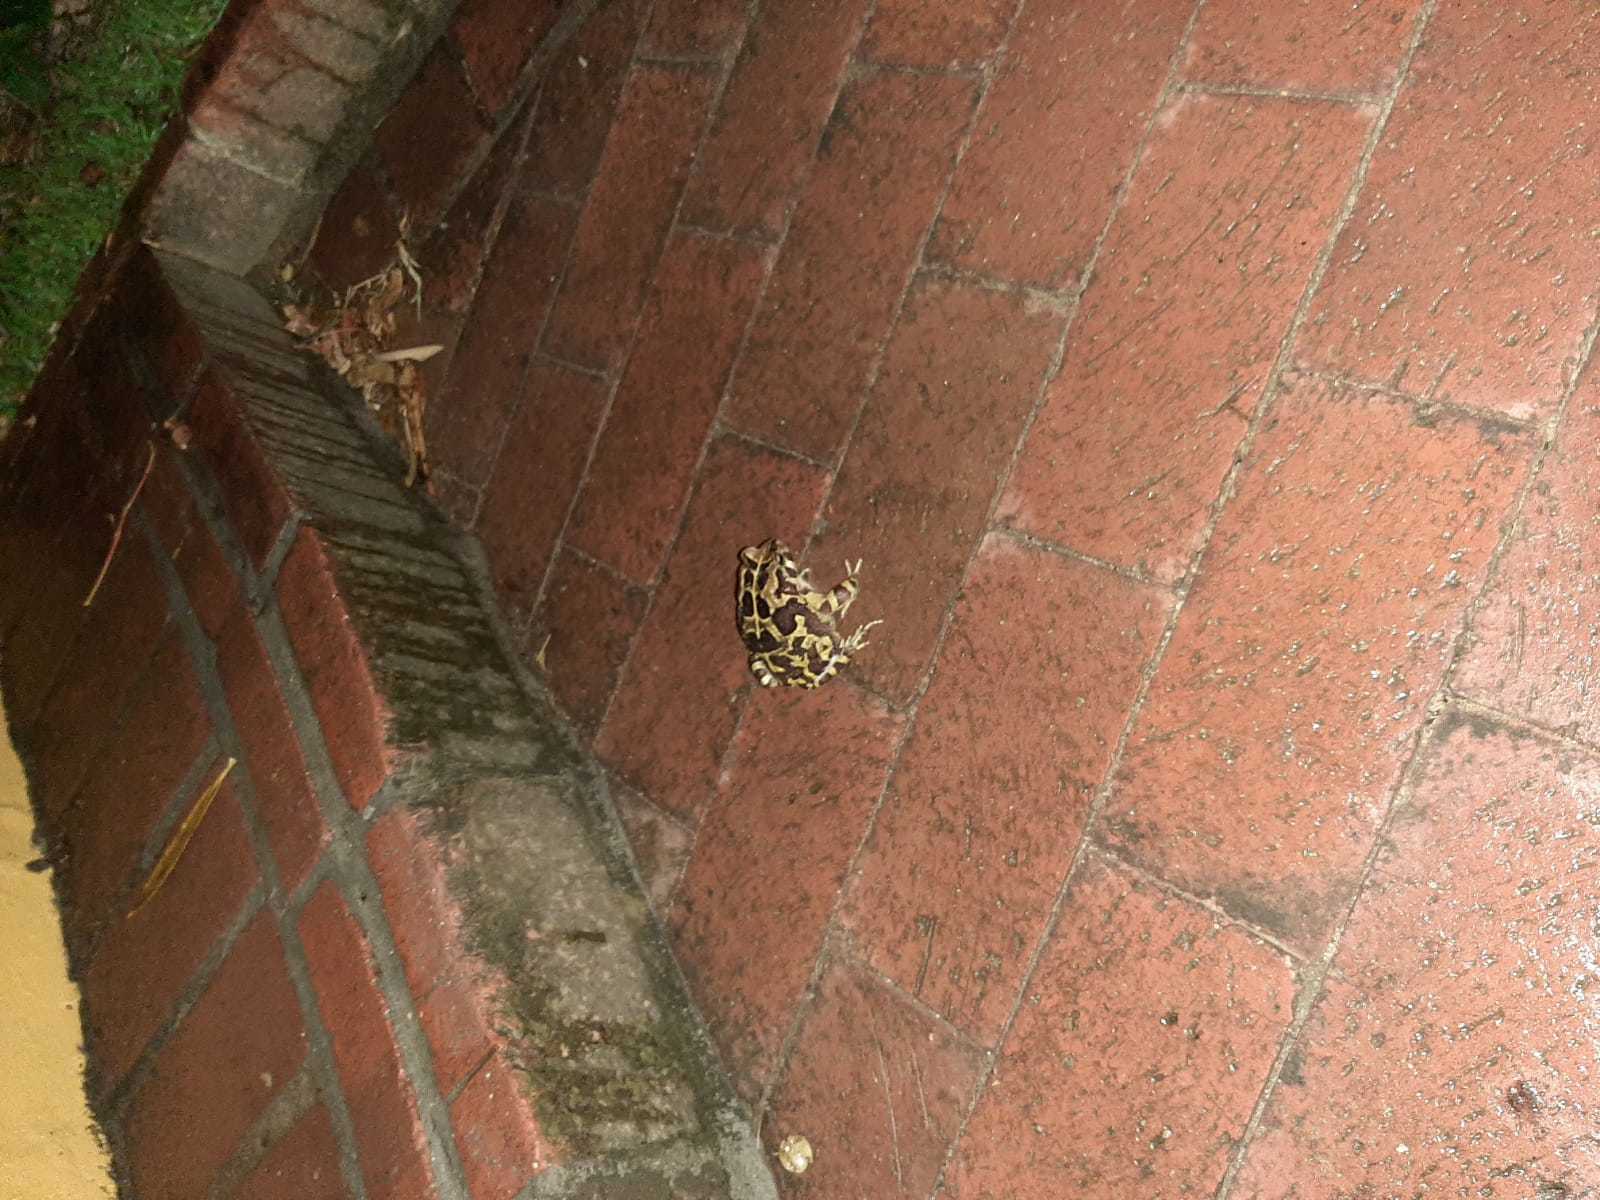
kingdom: Animalia
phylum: Chordata
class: Amphibia
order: Anura
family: Bufonidae
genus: Sclerophrys
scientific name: Sclerophrys pantherina
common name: Panther toad
